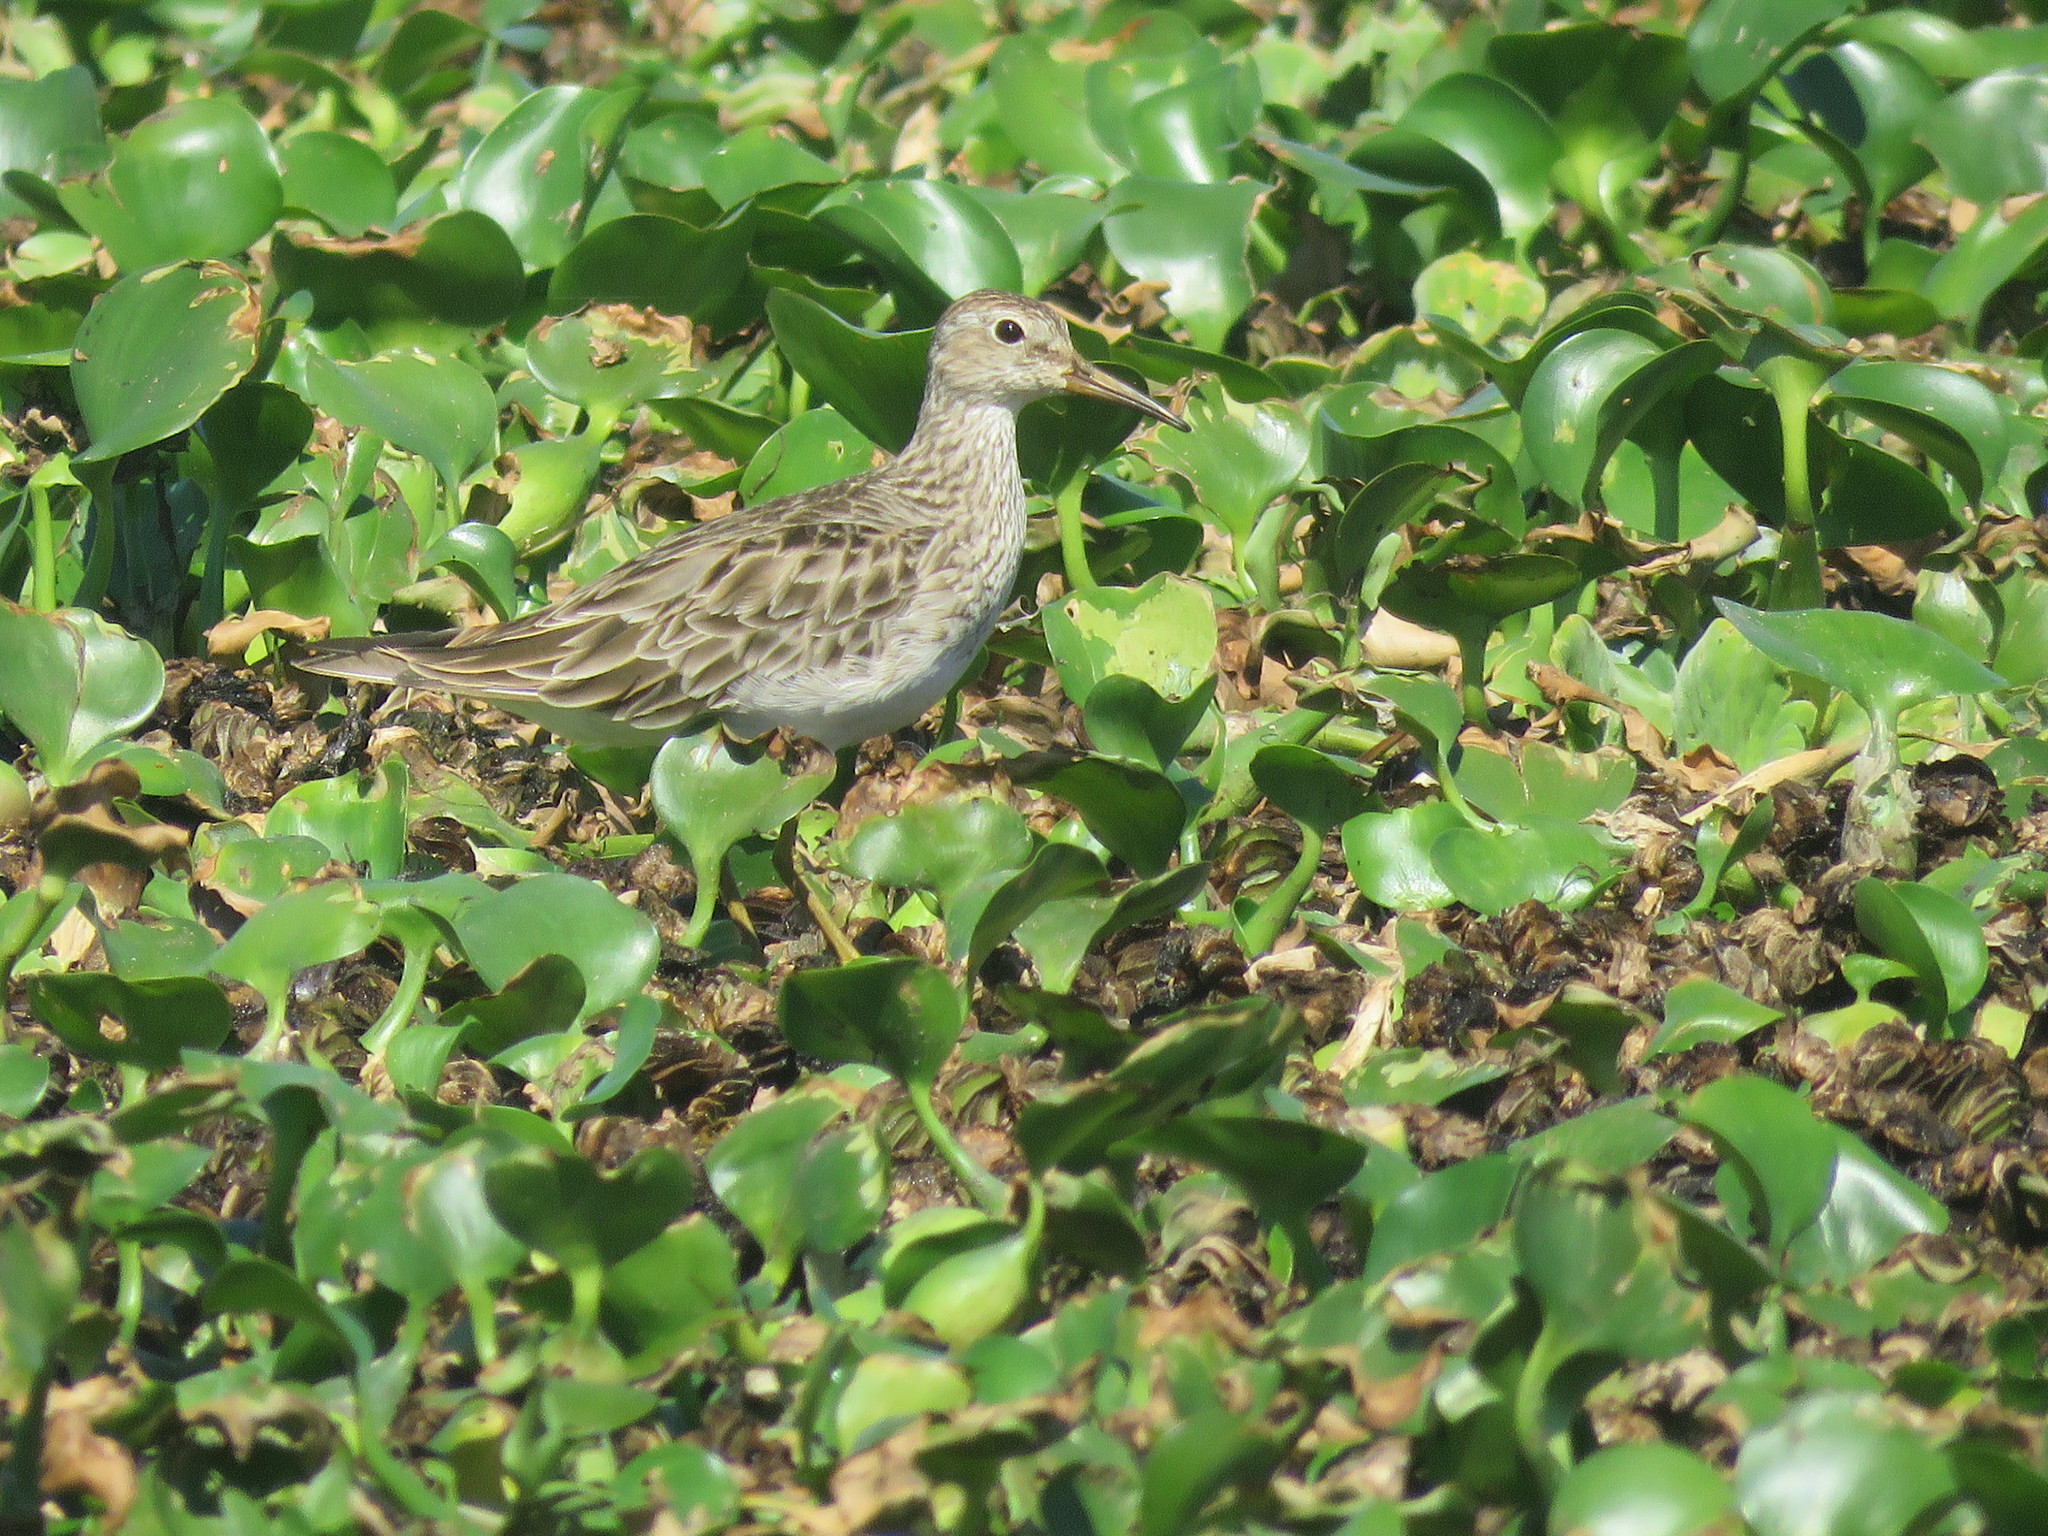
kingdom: Animalia
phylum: Chordata
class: Aves
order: Charadriiformes
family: Scolopacidae
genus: Calidris
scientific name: Calidris melanotos
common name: Pectoral sandpiper
